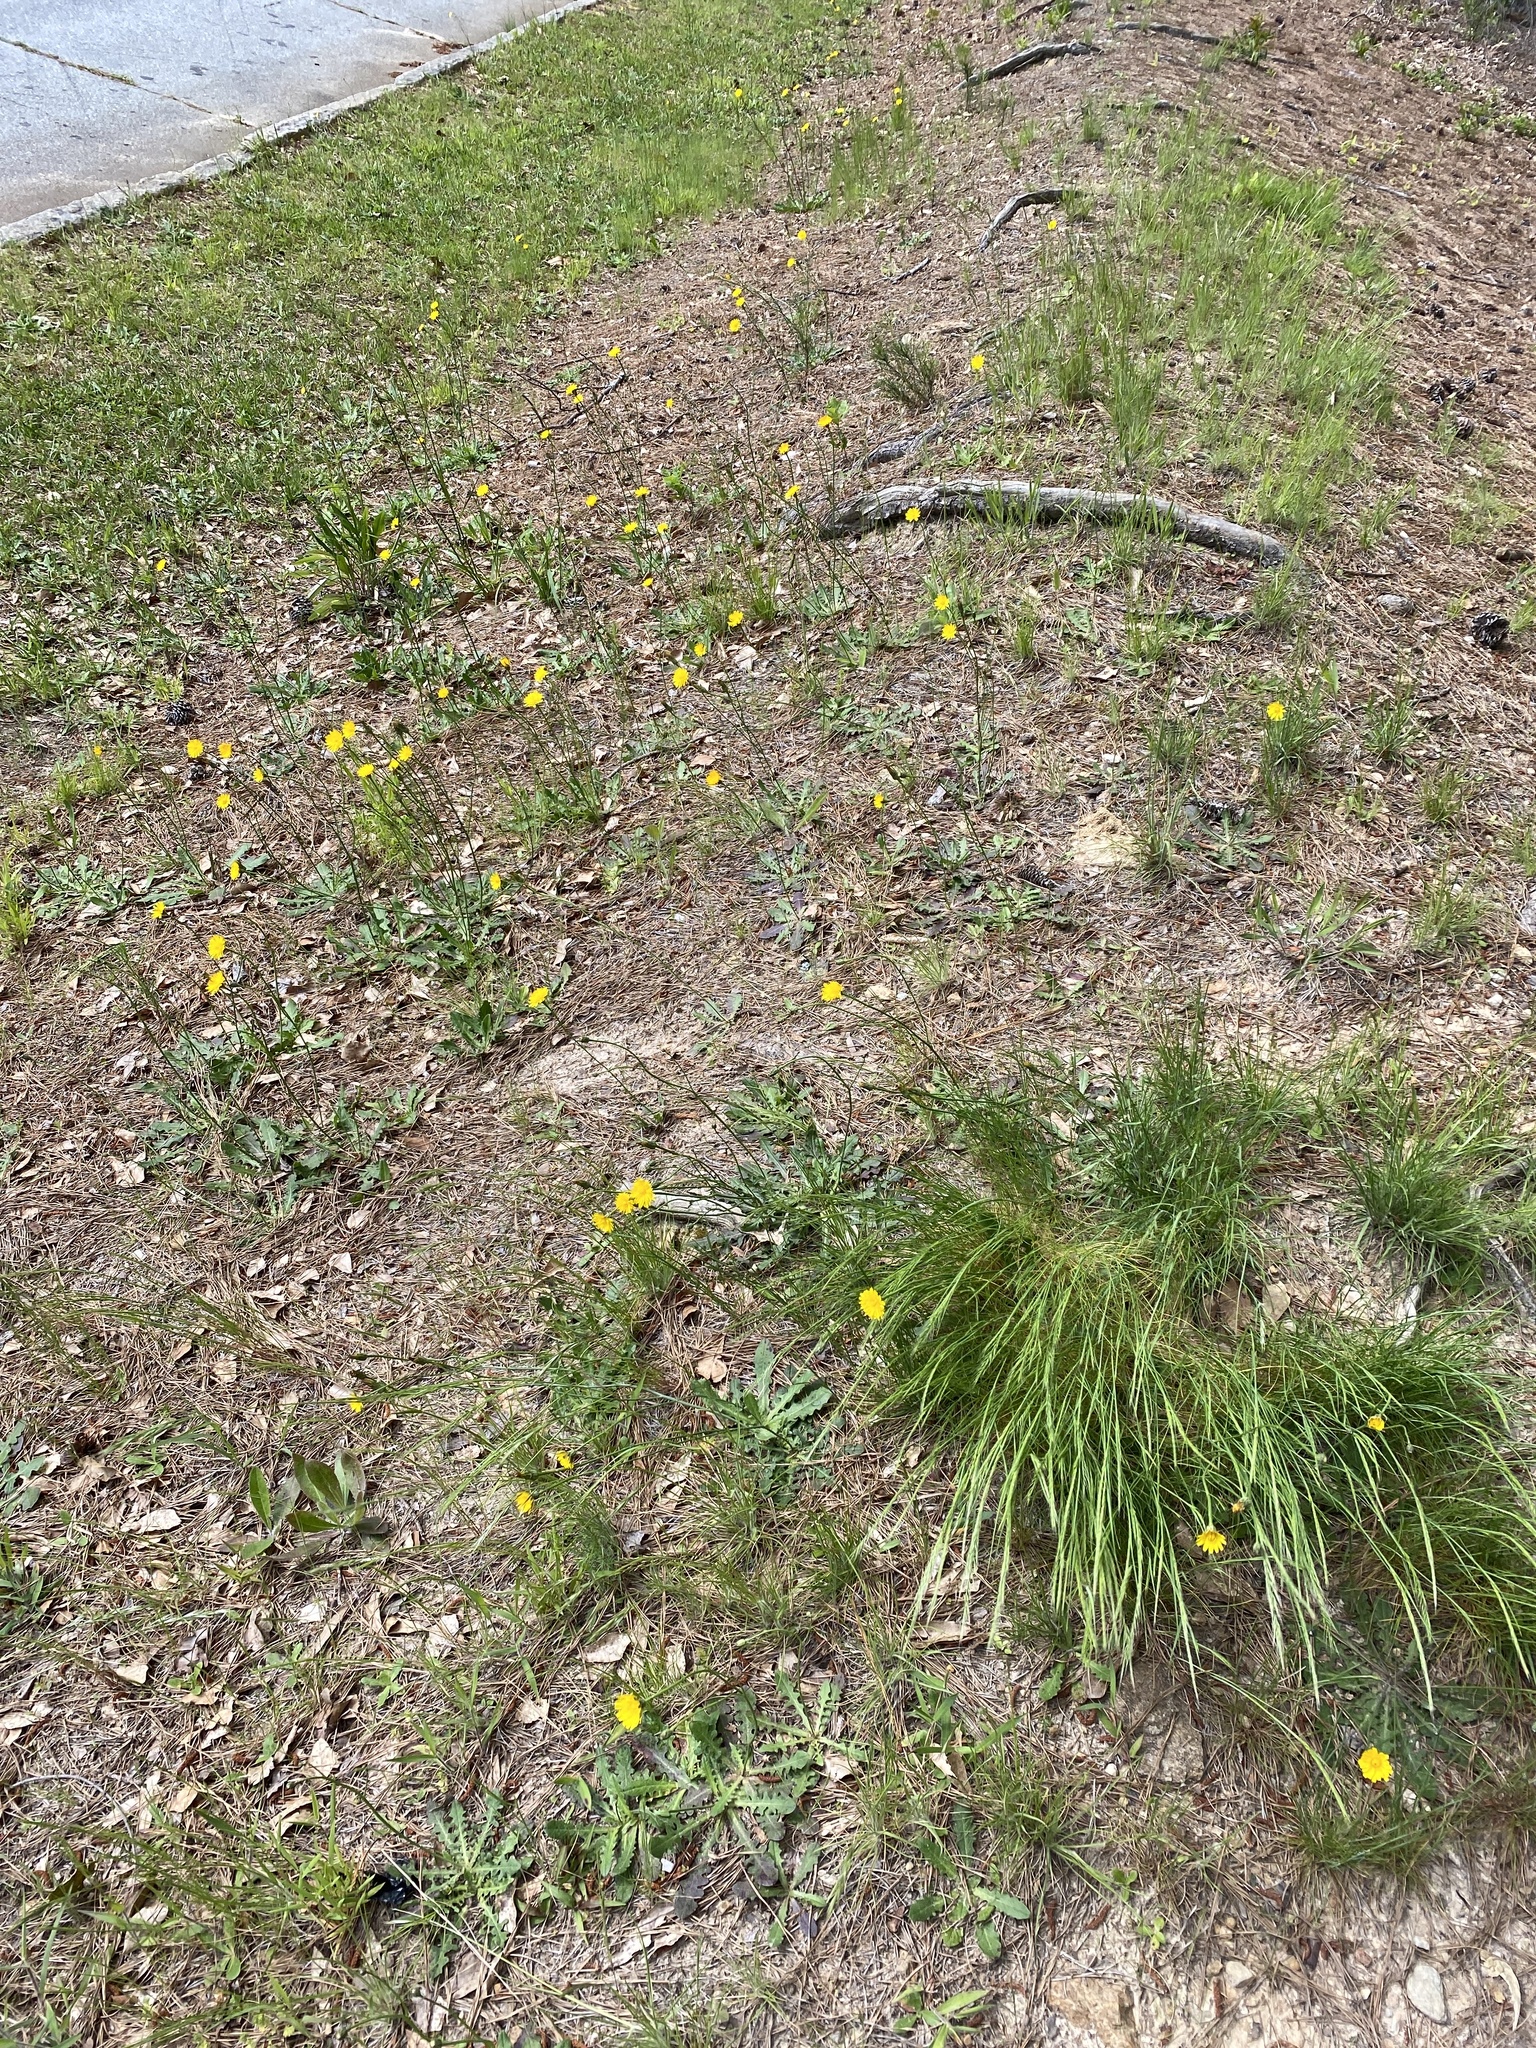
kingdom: Plantae
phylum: Tracheophyta
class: Magnoliopsida
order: Asterales
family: Asteraceae
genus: Hypochaeris
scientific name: Hypochaeris radicata
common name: Flatweed
